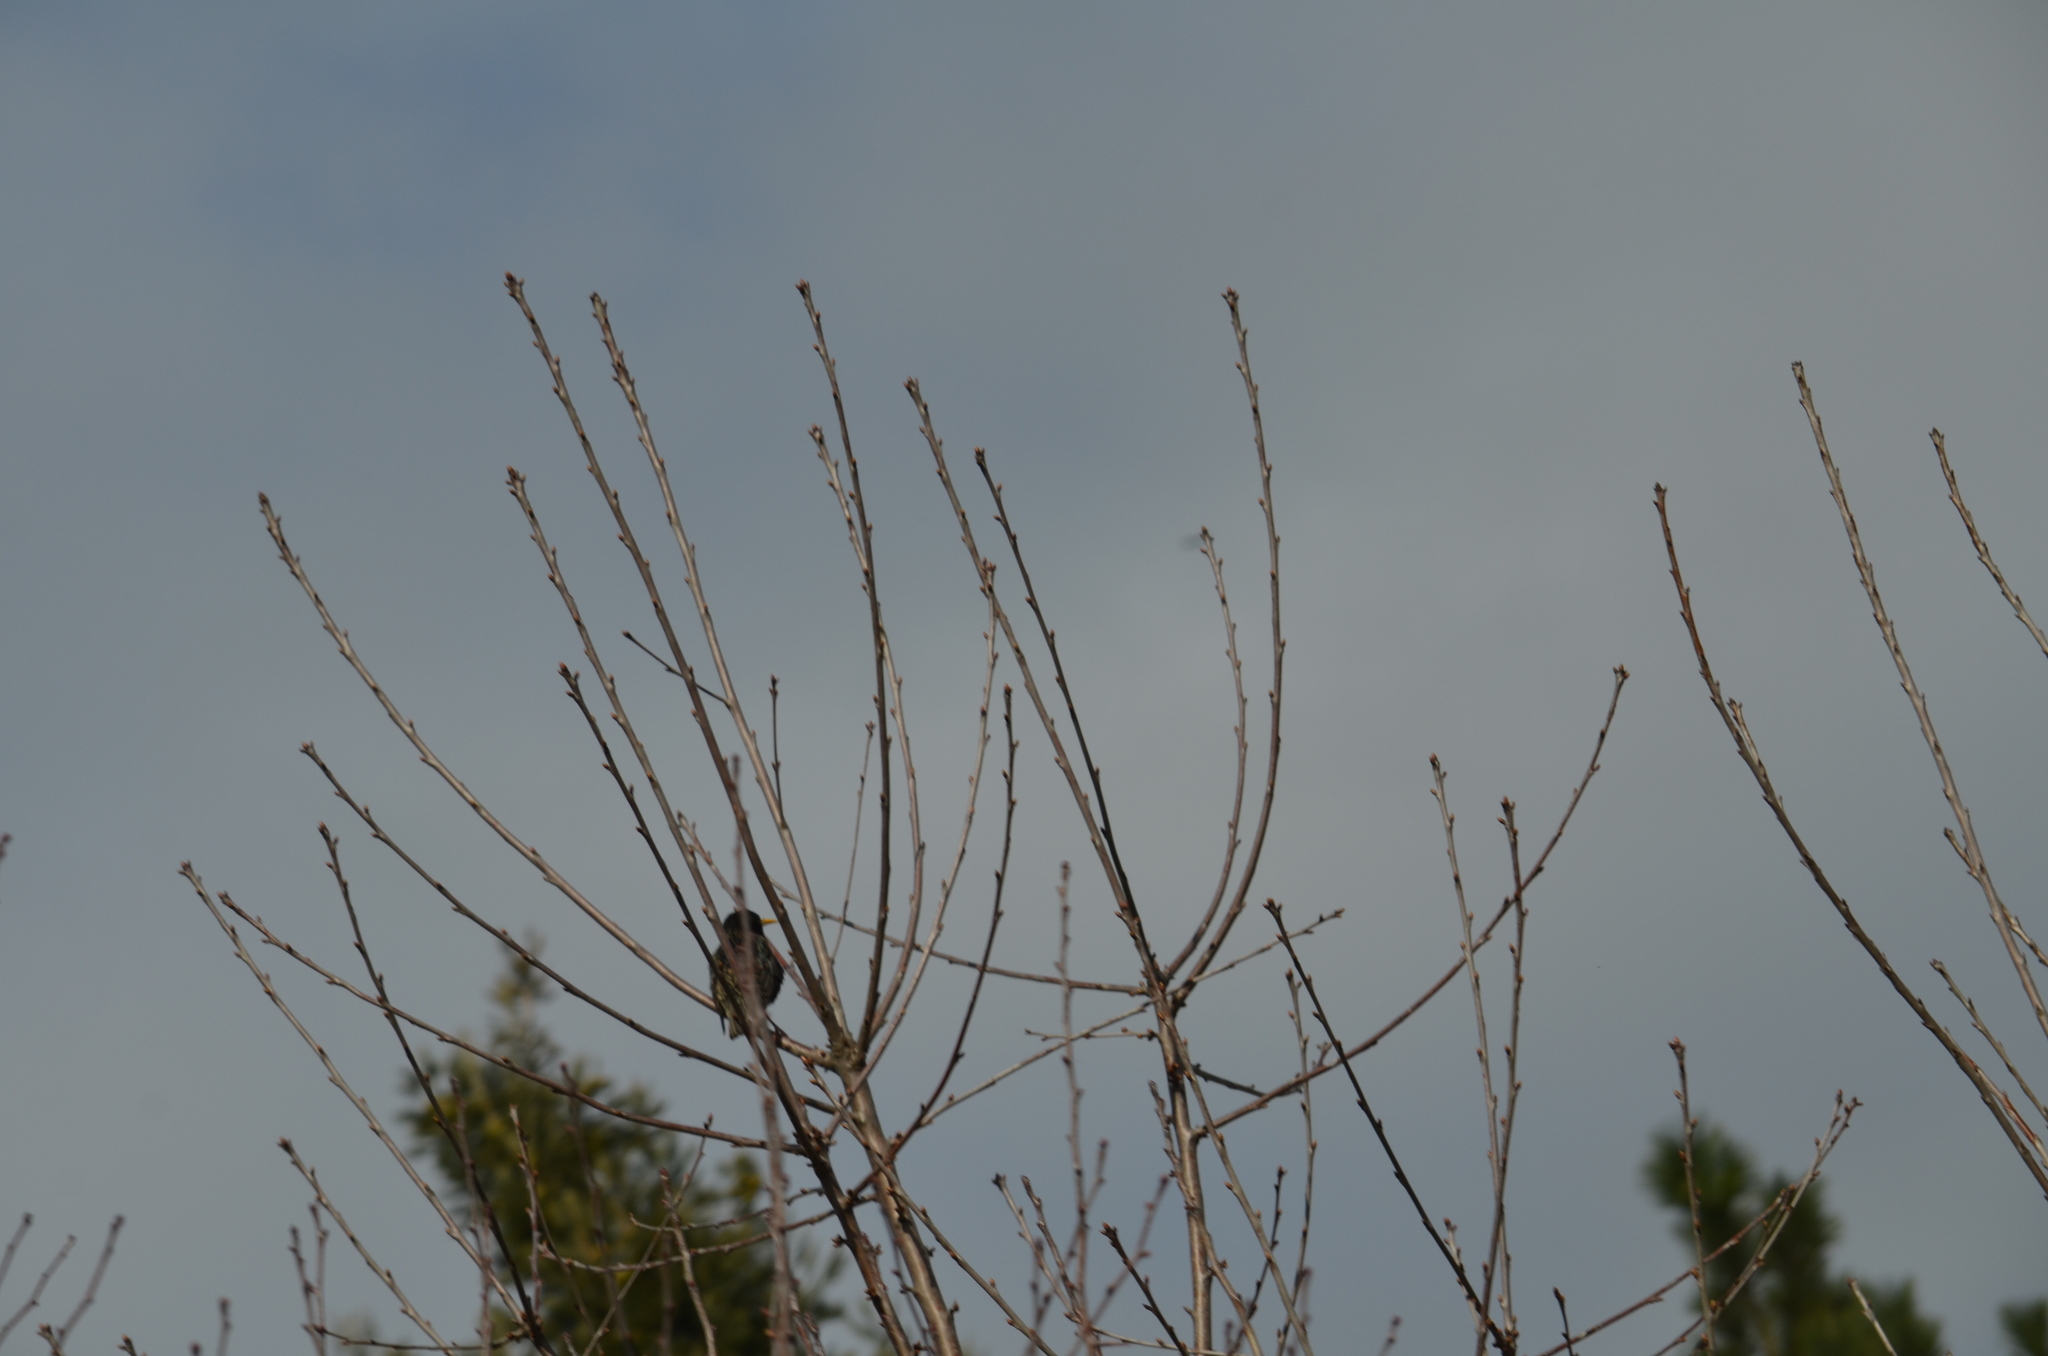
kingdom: Animalia
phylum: Chordata
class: Aves
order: Passeriformes
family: Sturnidae
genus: Sturnus
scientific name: Sturnus vulgaris
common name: Common starling
